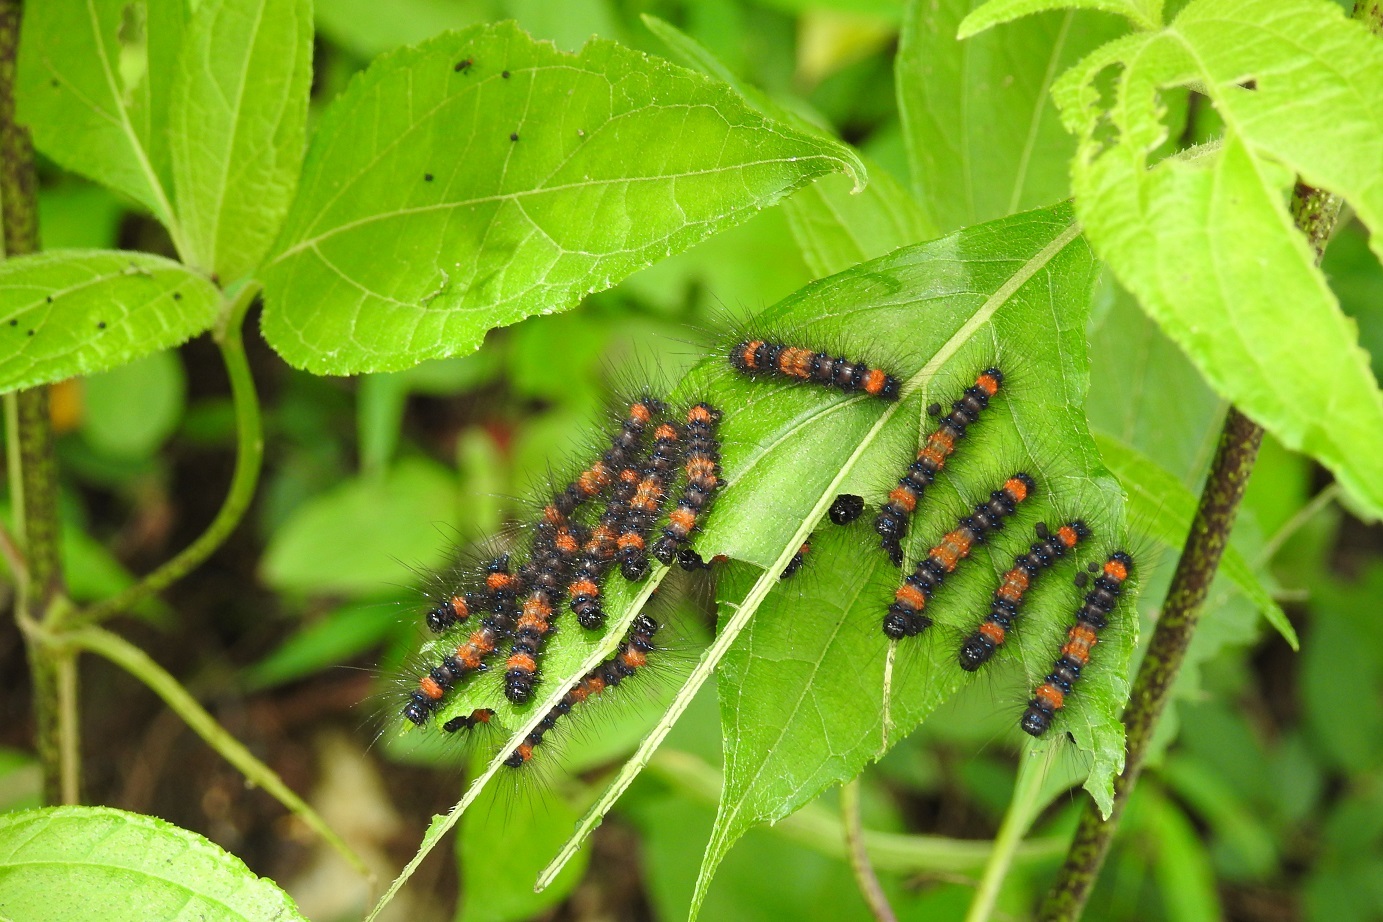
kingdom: Animalia
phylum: Arthropoda
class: Insecta
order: Lepidoptera
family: Erebidae
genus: Dysschema
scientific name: Dysschema jansonis
